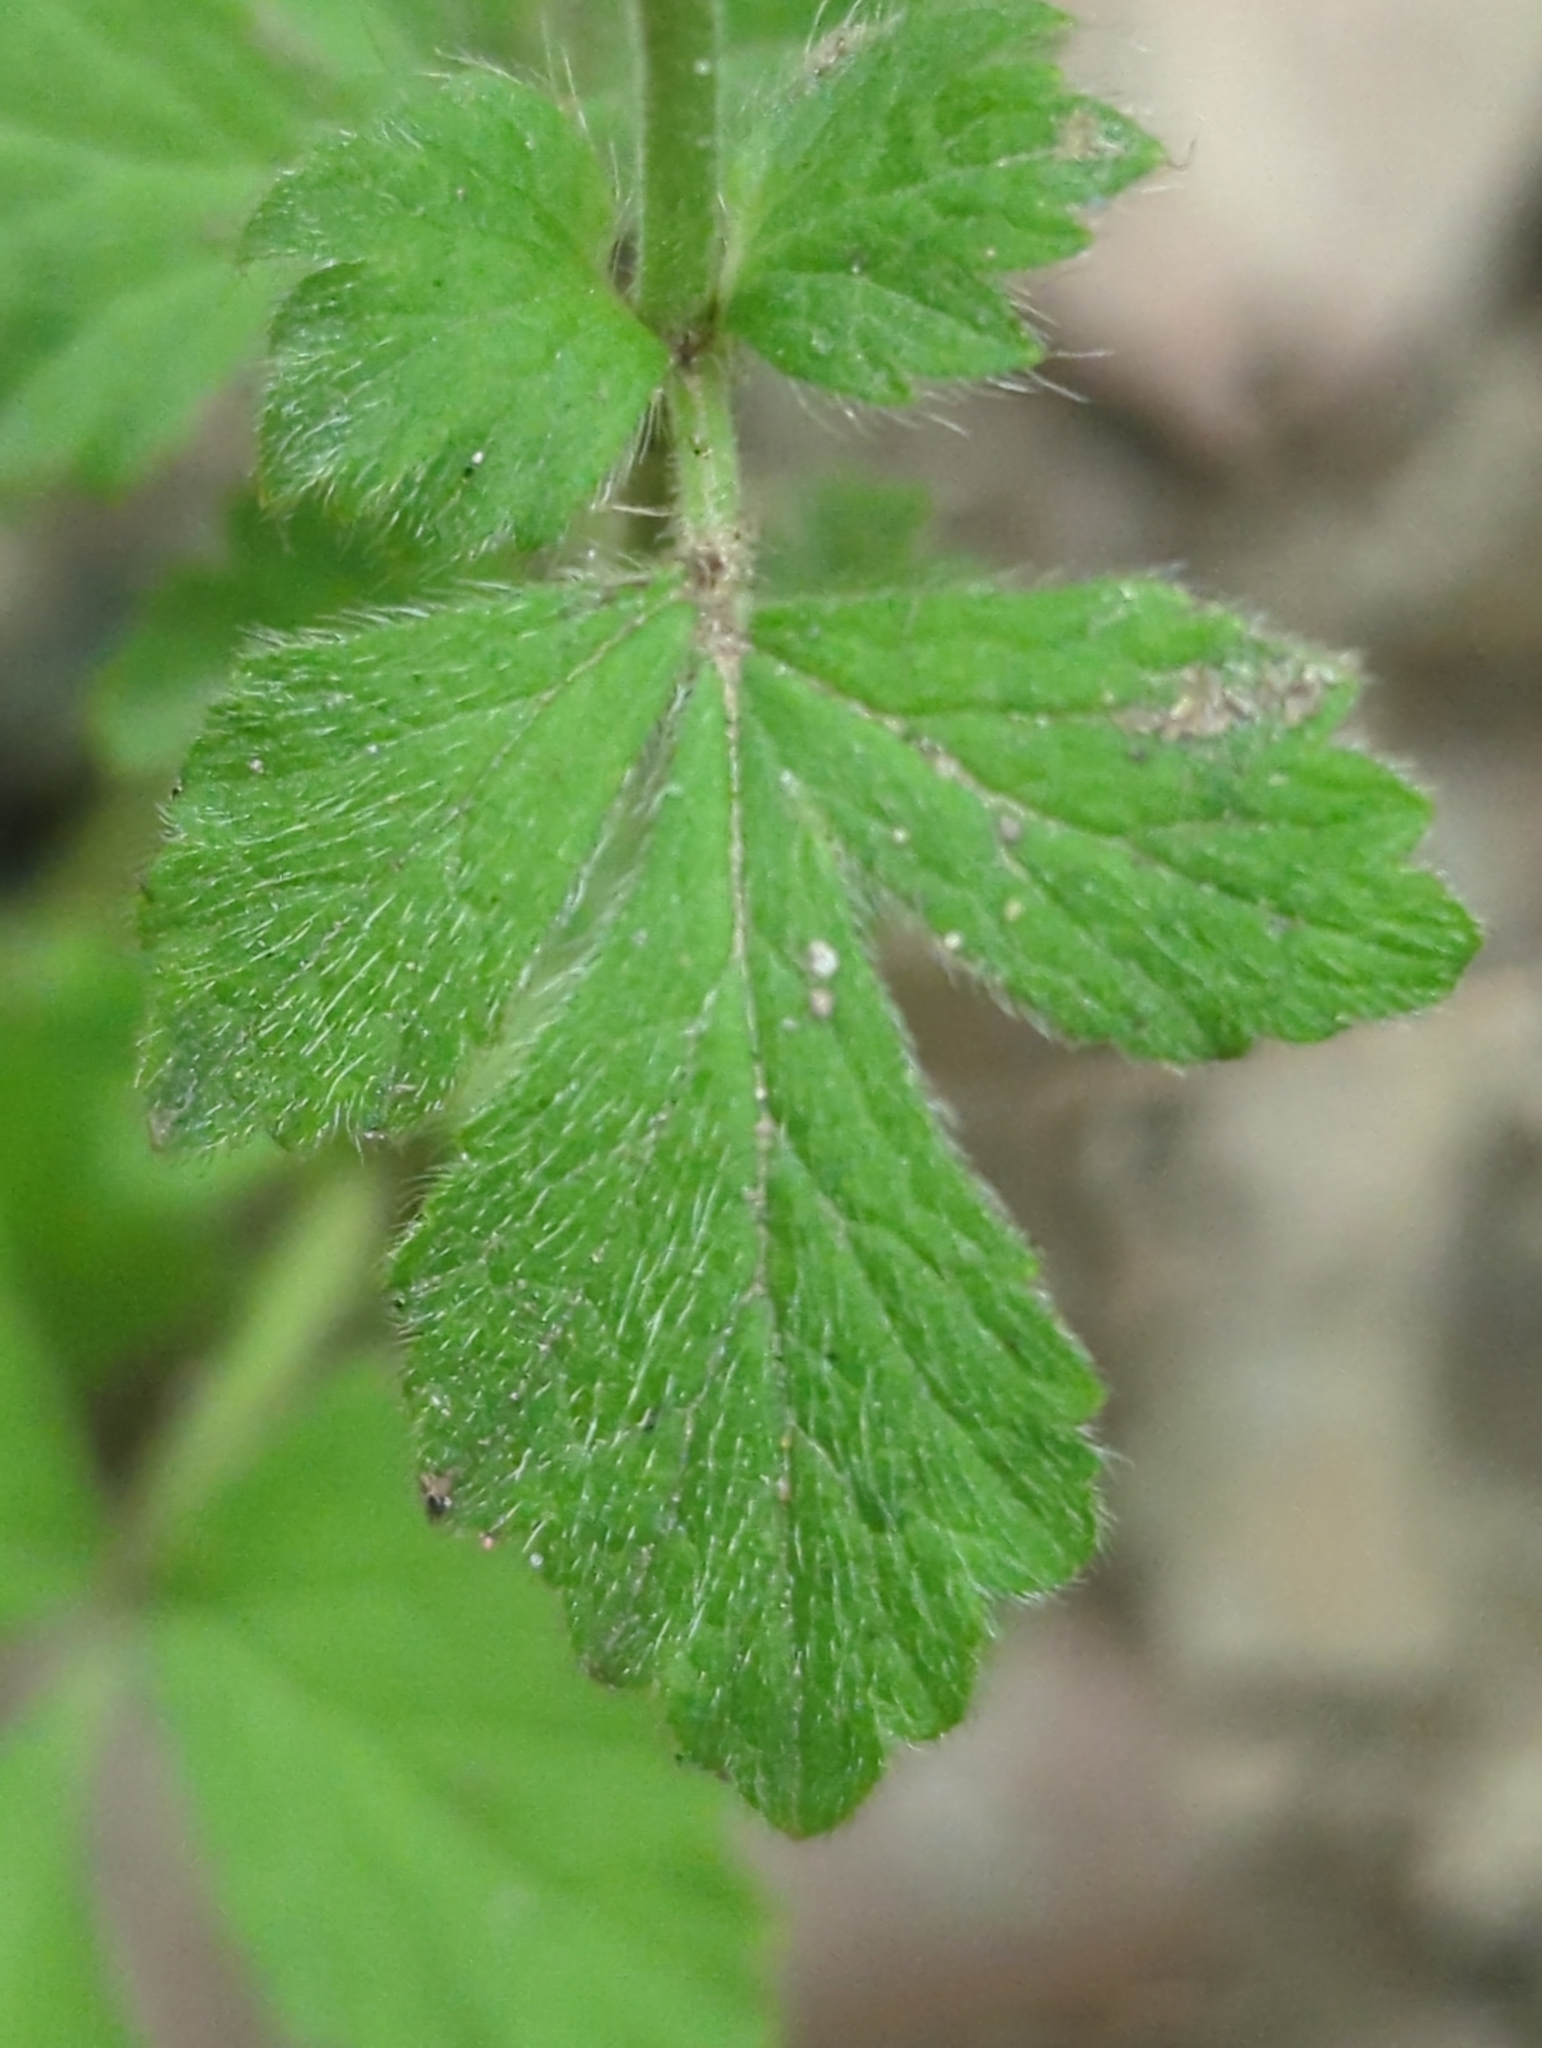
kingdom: Plantae
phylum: Tracheophyta
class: Magnoliopsida
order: Rosales
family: Rosaceae
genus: Geum
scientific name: Geum urbanum
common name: Wood avens
